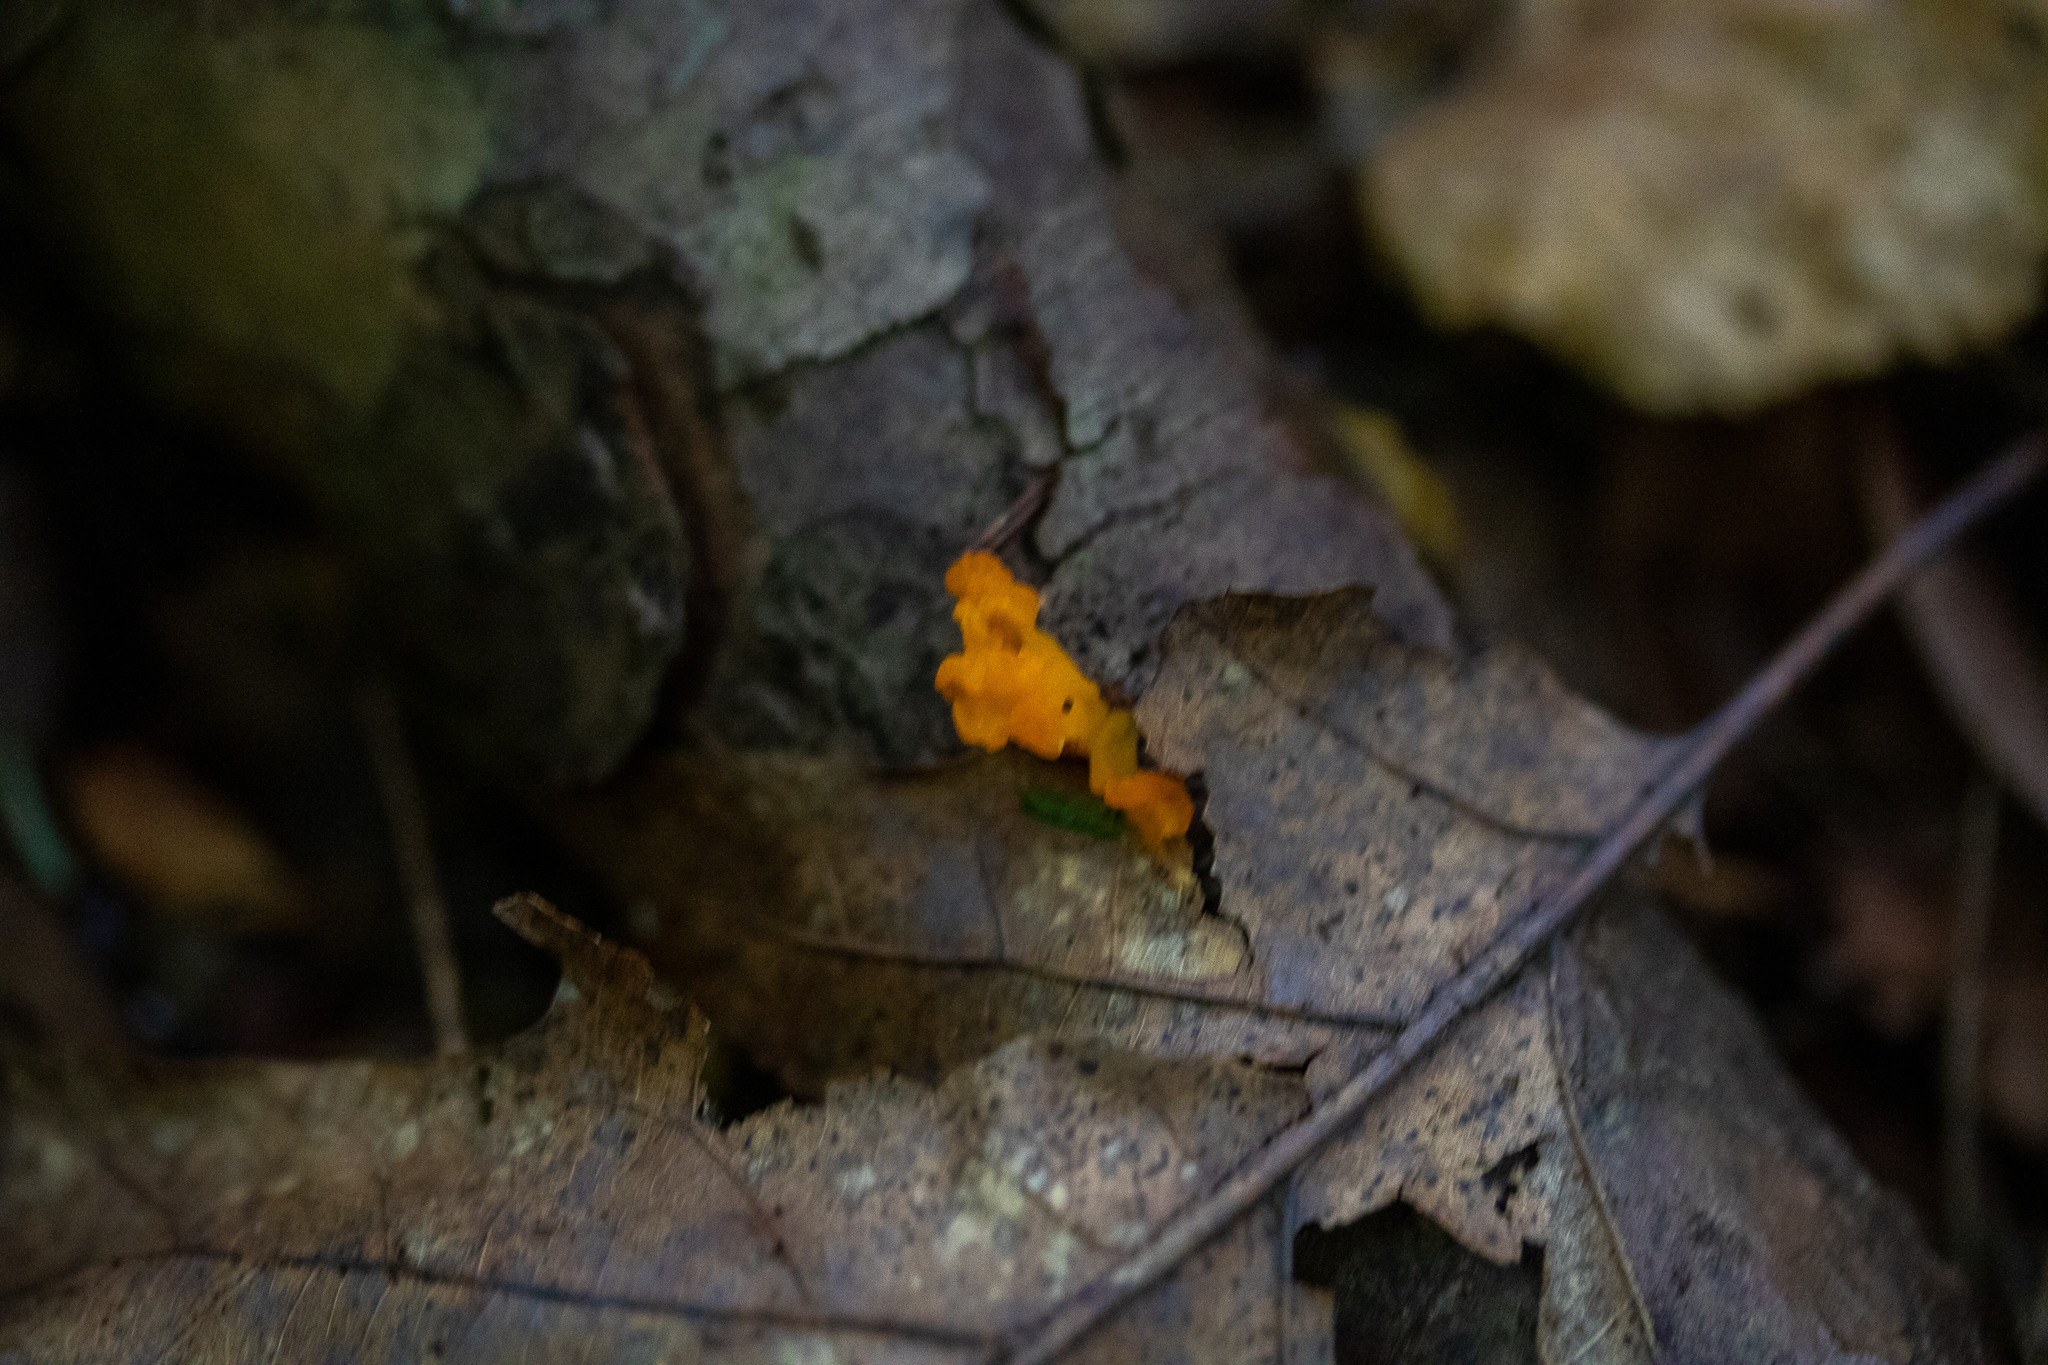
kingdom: Fungi
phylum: Basidiomycota
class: Tremellomycetes
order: Tremellales
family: Tremellaceae
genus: Tremella
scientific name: Tremella mesenterica
